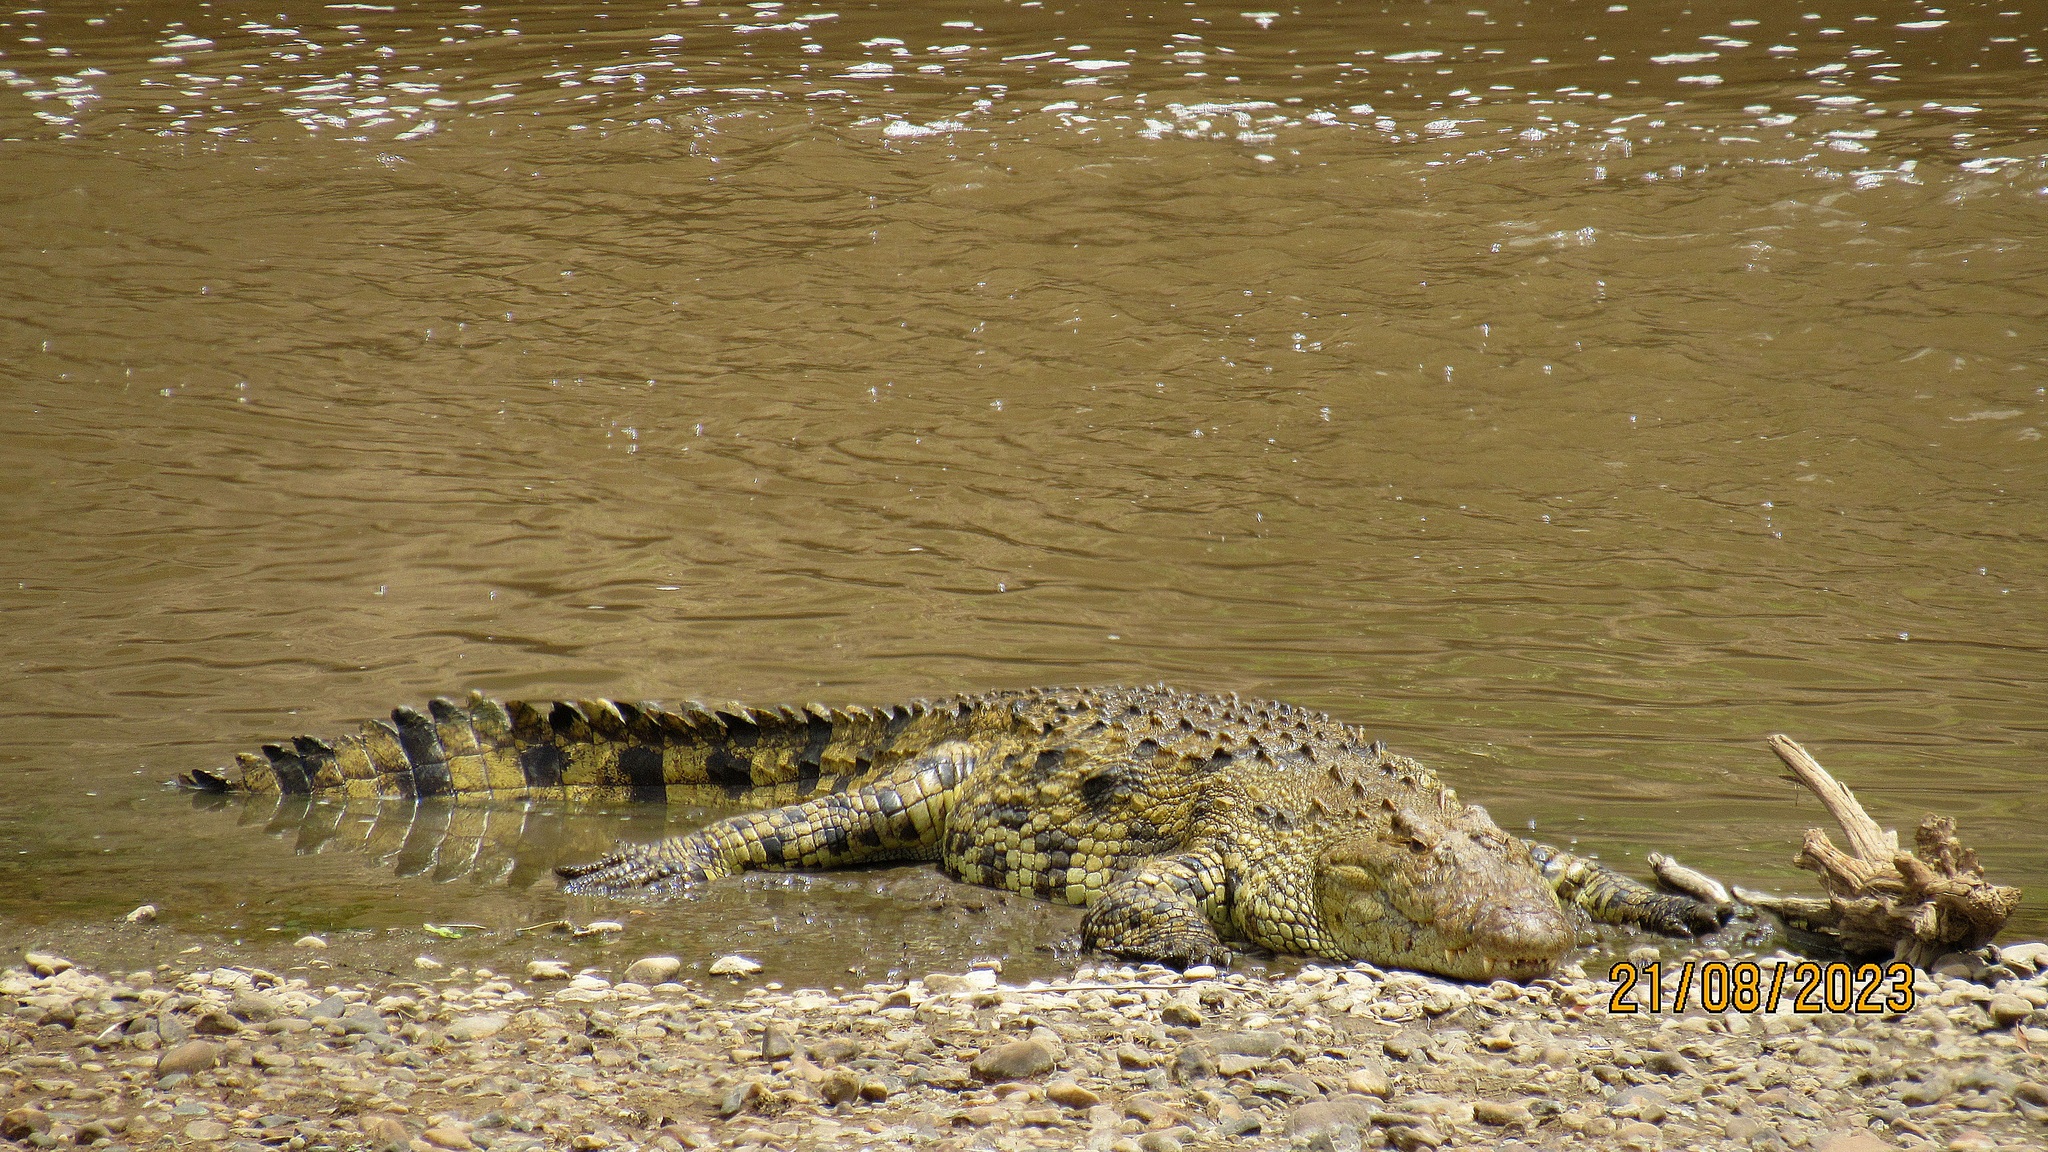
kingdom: Animalia
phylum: Chordata
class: Crocodylia
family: Crocodylidae
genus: Crocodylus
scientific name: Crocodylus niloticus
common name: Nile crocodile
